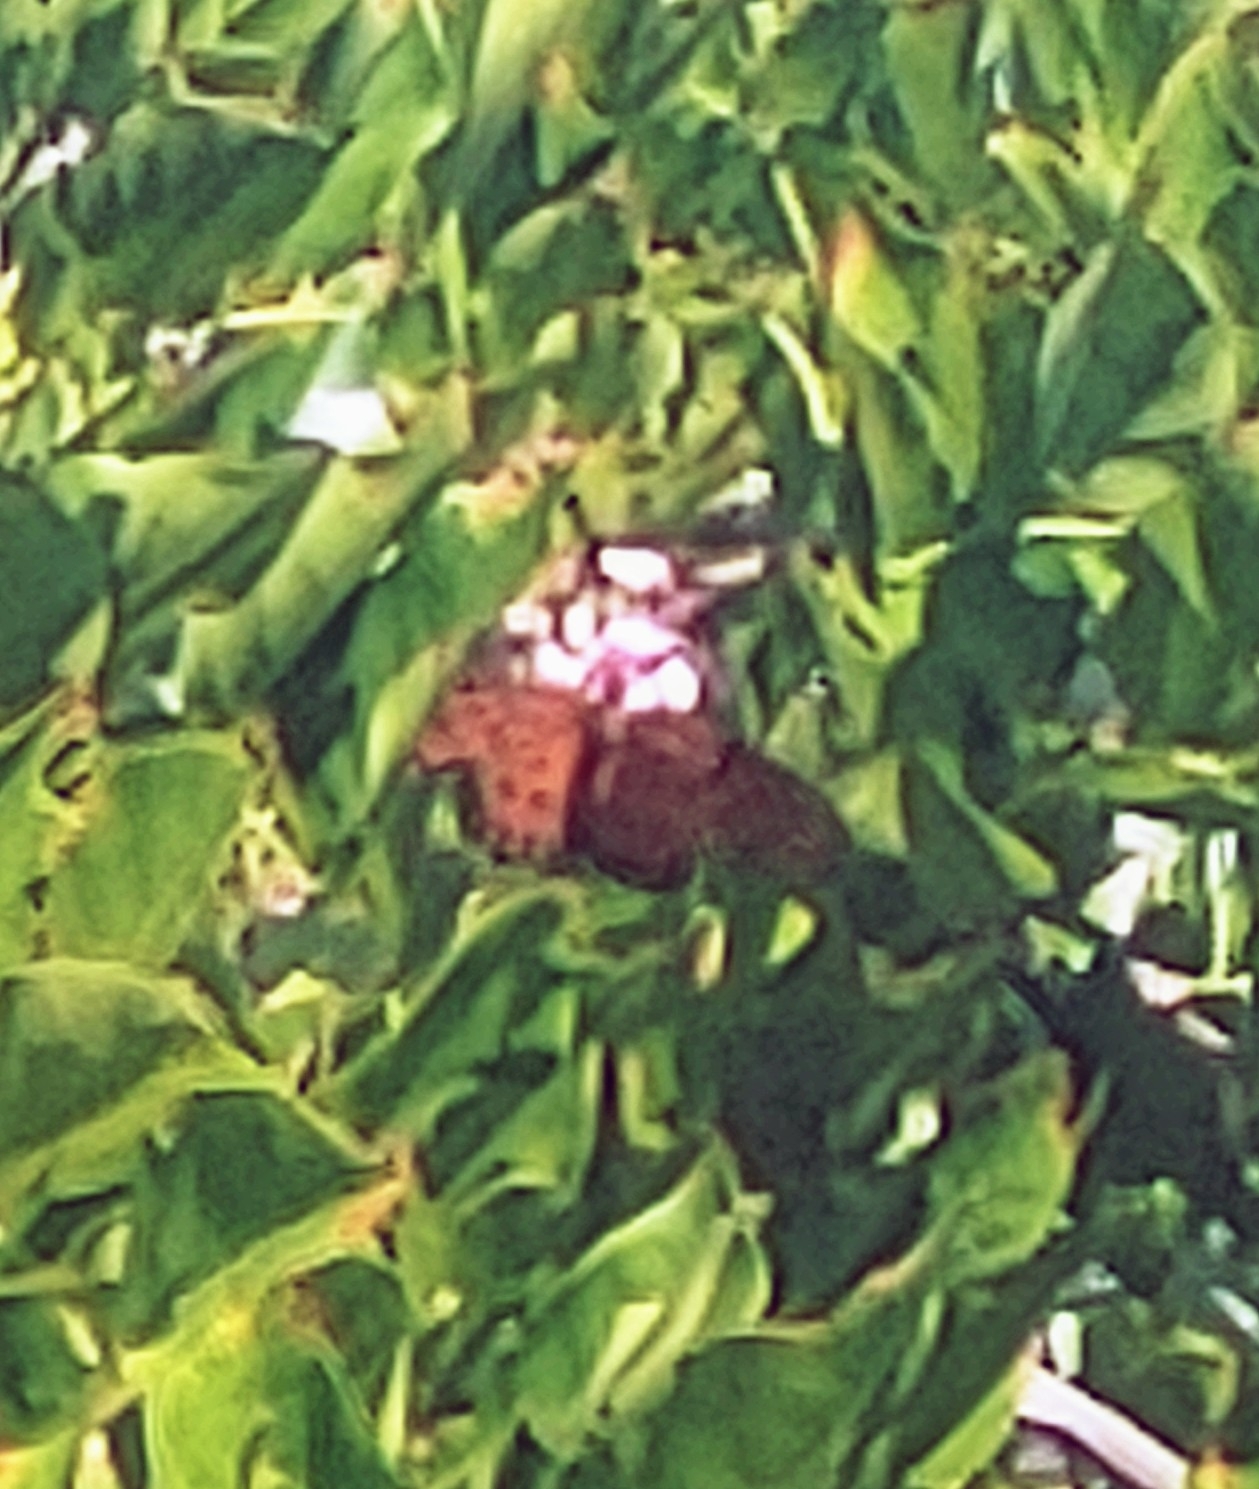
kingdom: Animalia
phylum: Arthropoda
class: Insecta
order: Lepidoptera
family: Nymphalidae
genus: Dione
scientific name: Dione vanillae
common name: Gulf fritillary
